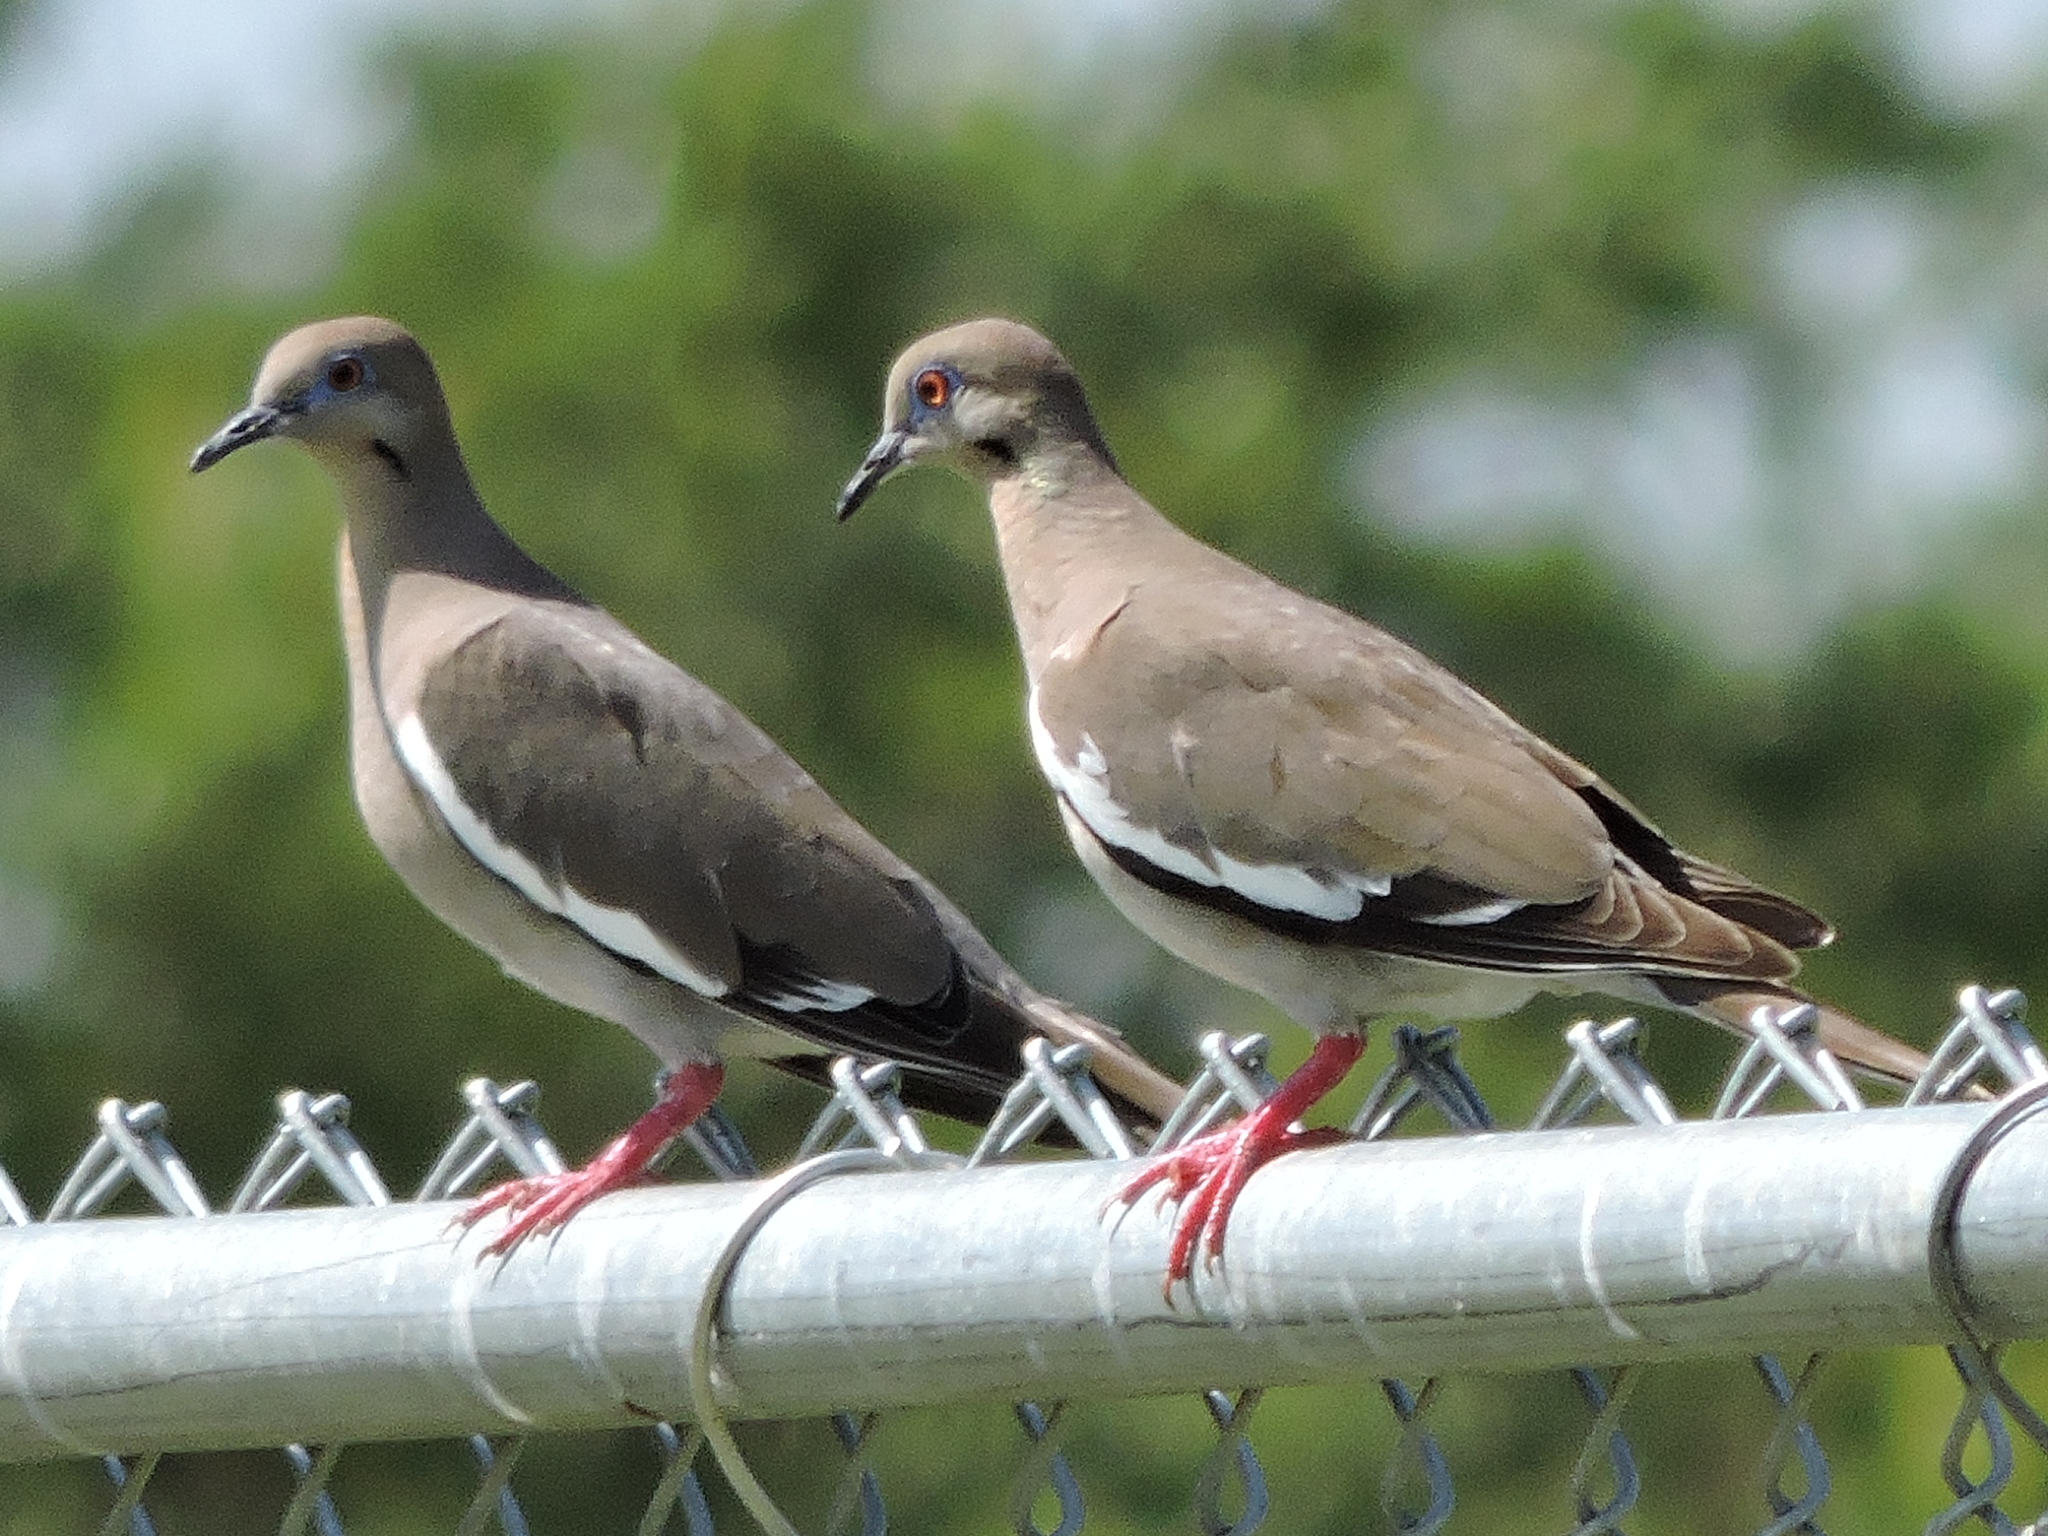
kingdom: Animalia
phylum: Chordata
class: Aves
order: Columbiformes
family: Columbidae
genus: Zenaida
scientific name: Zenaida asiatica
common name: White-winged dove
